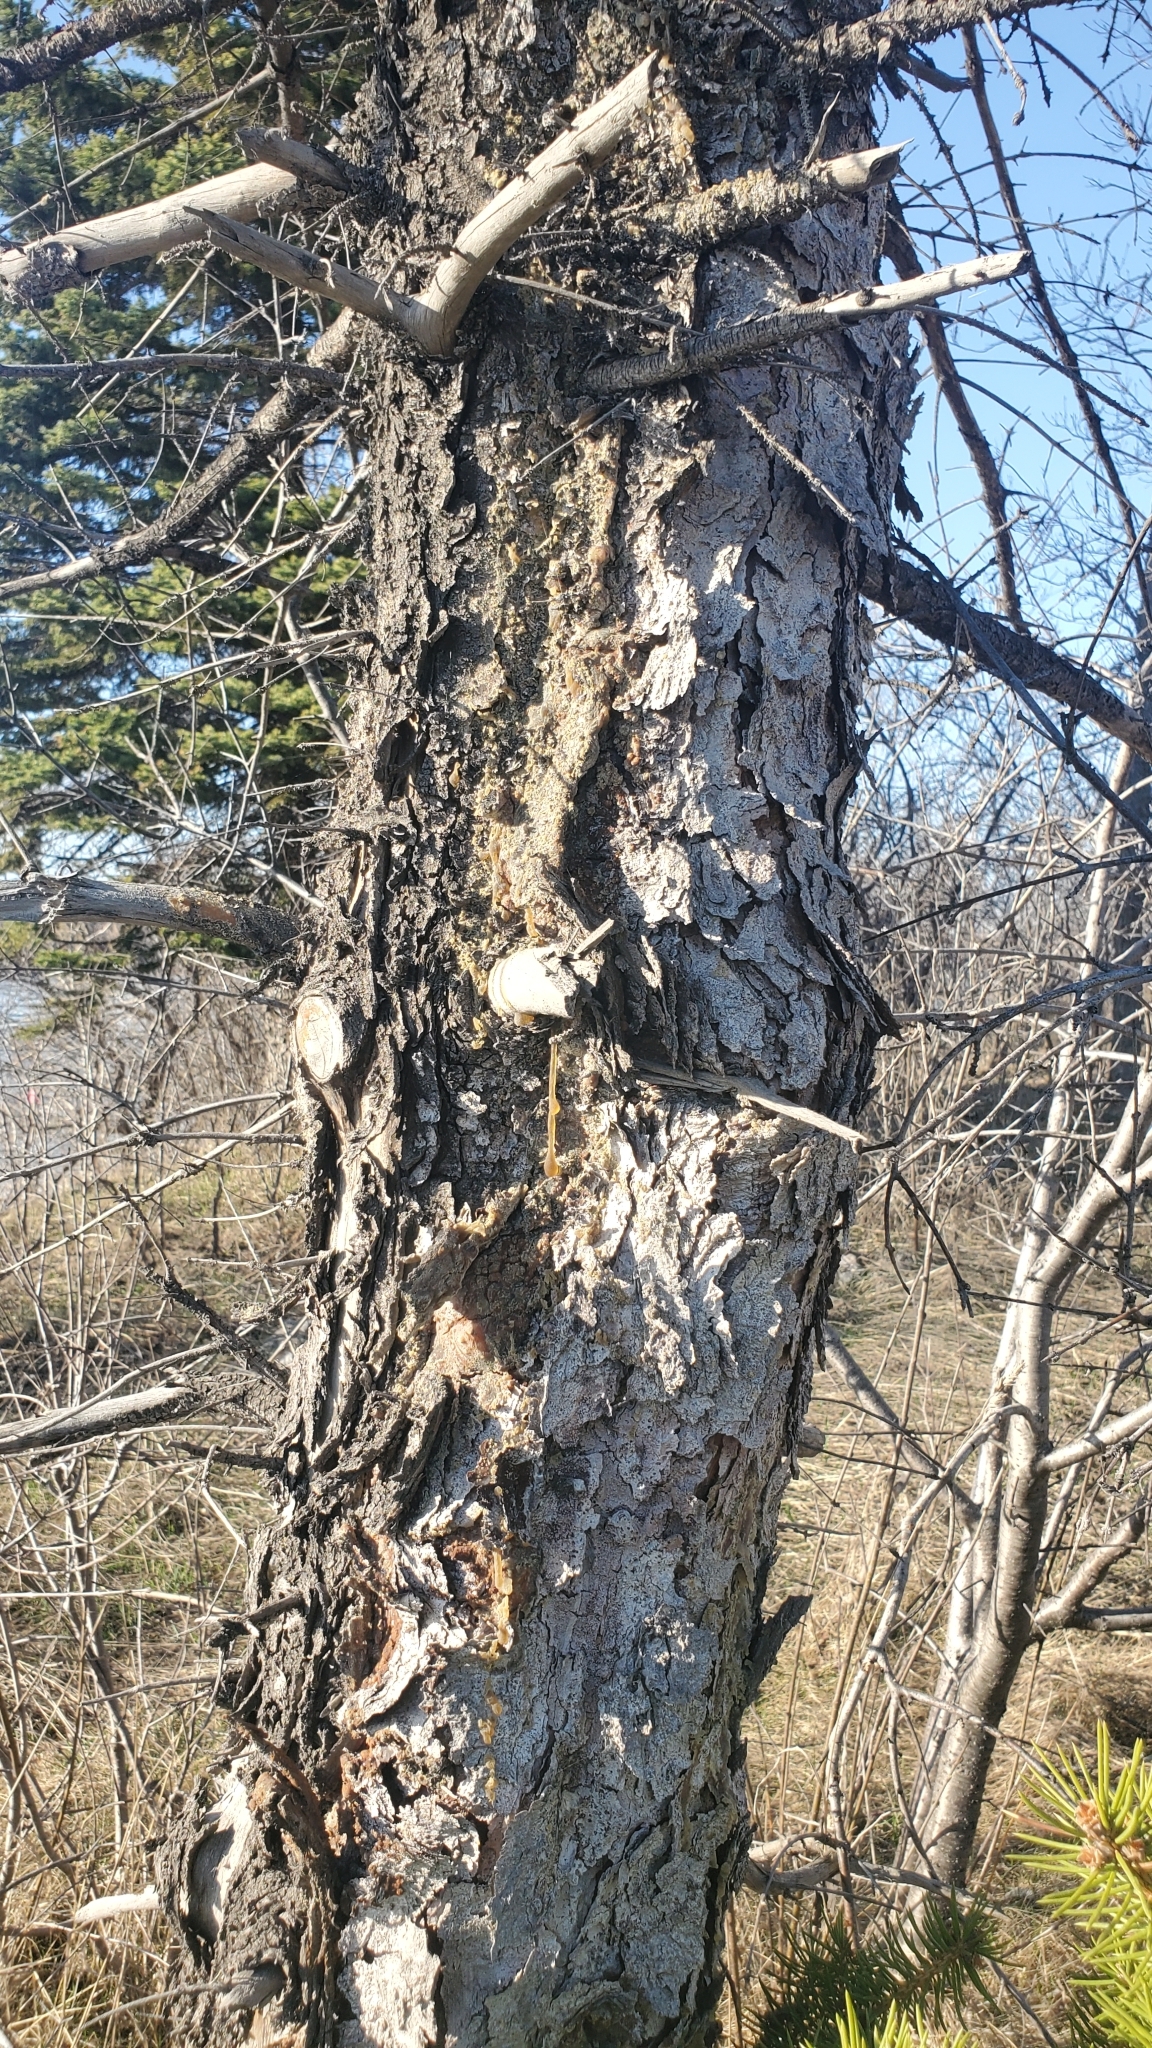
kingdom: Plantae
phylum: Tracheophyta
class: Pinopsida
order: Pinales
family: Pinaceae
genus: Picea
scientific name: Picea glauca
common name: White spruce
